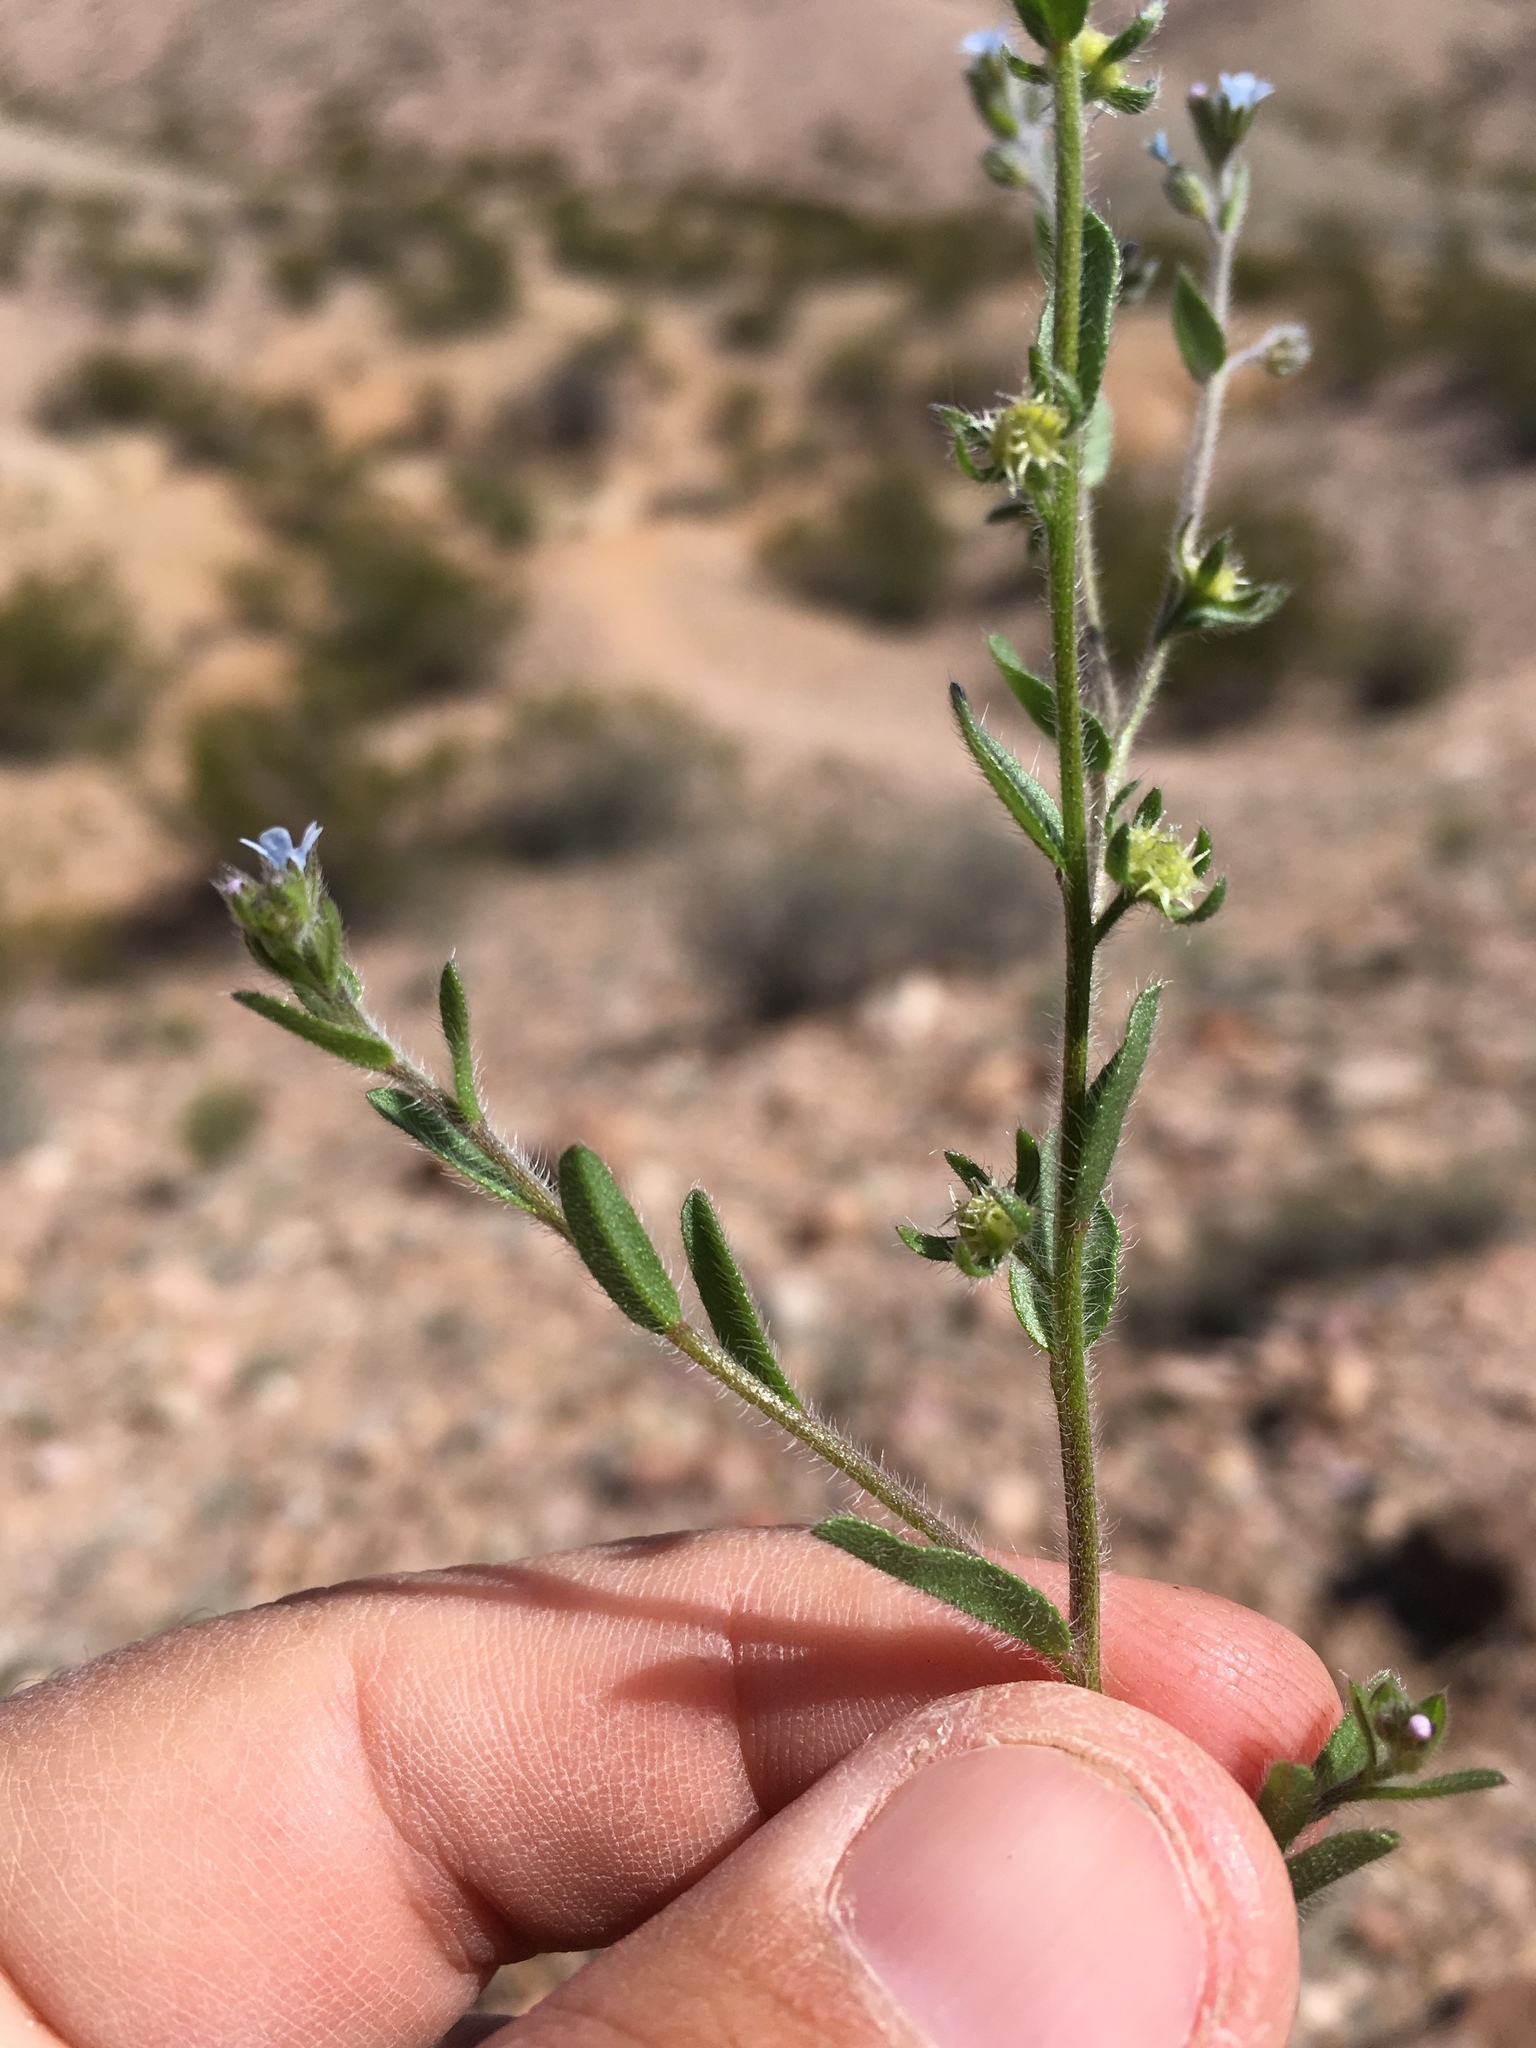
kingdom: Plantae
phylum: Tracheophyta
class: Magnoliopsida
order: Boraginales
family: Boraginaceae
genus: Lappula
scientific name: Lappula occidentalis
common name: Western stickseed
